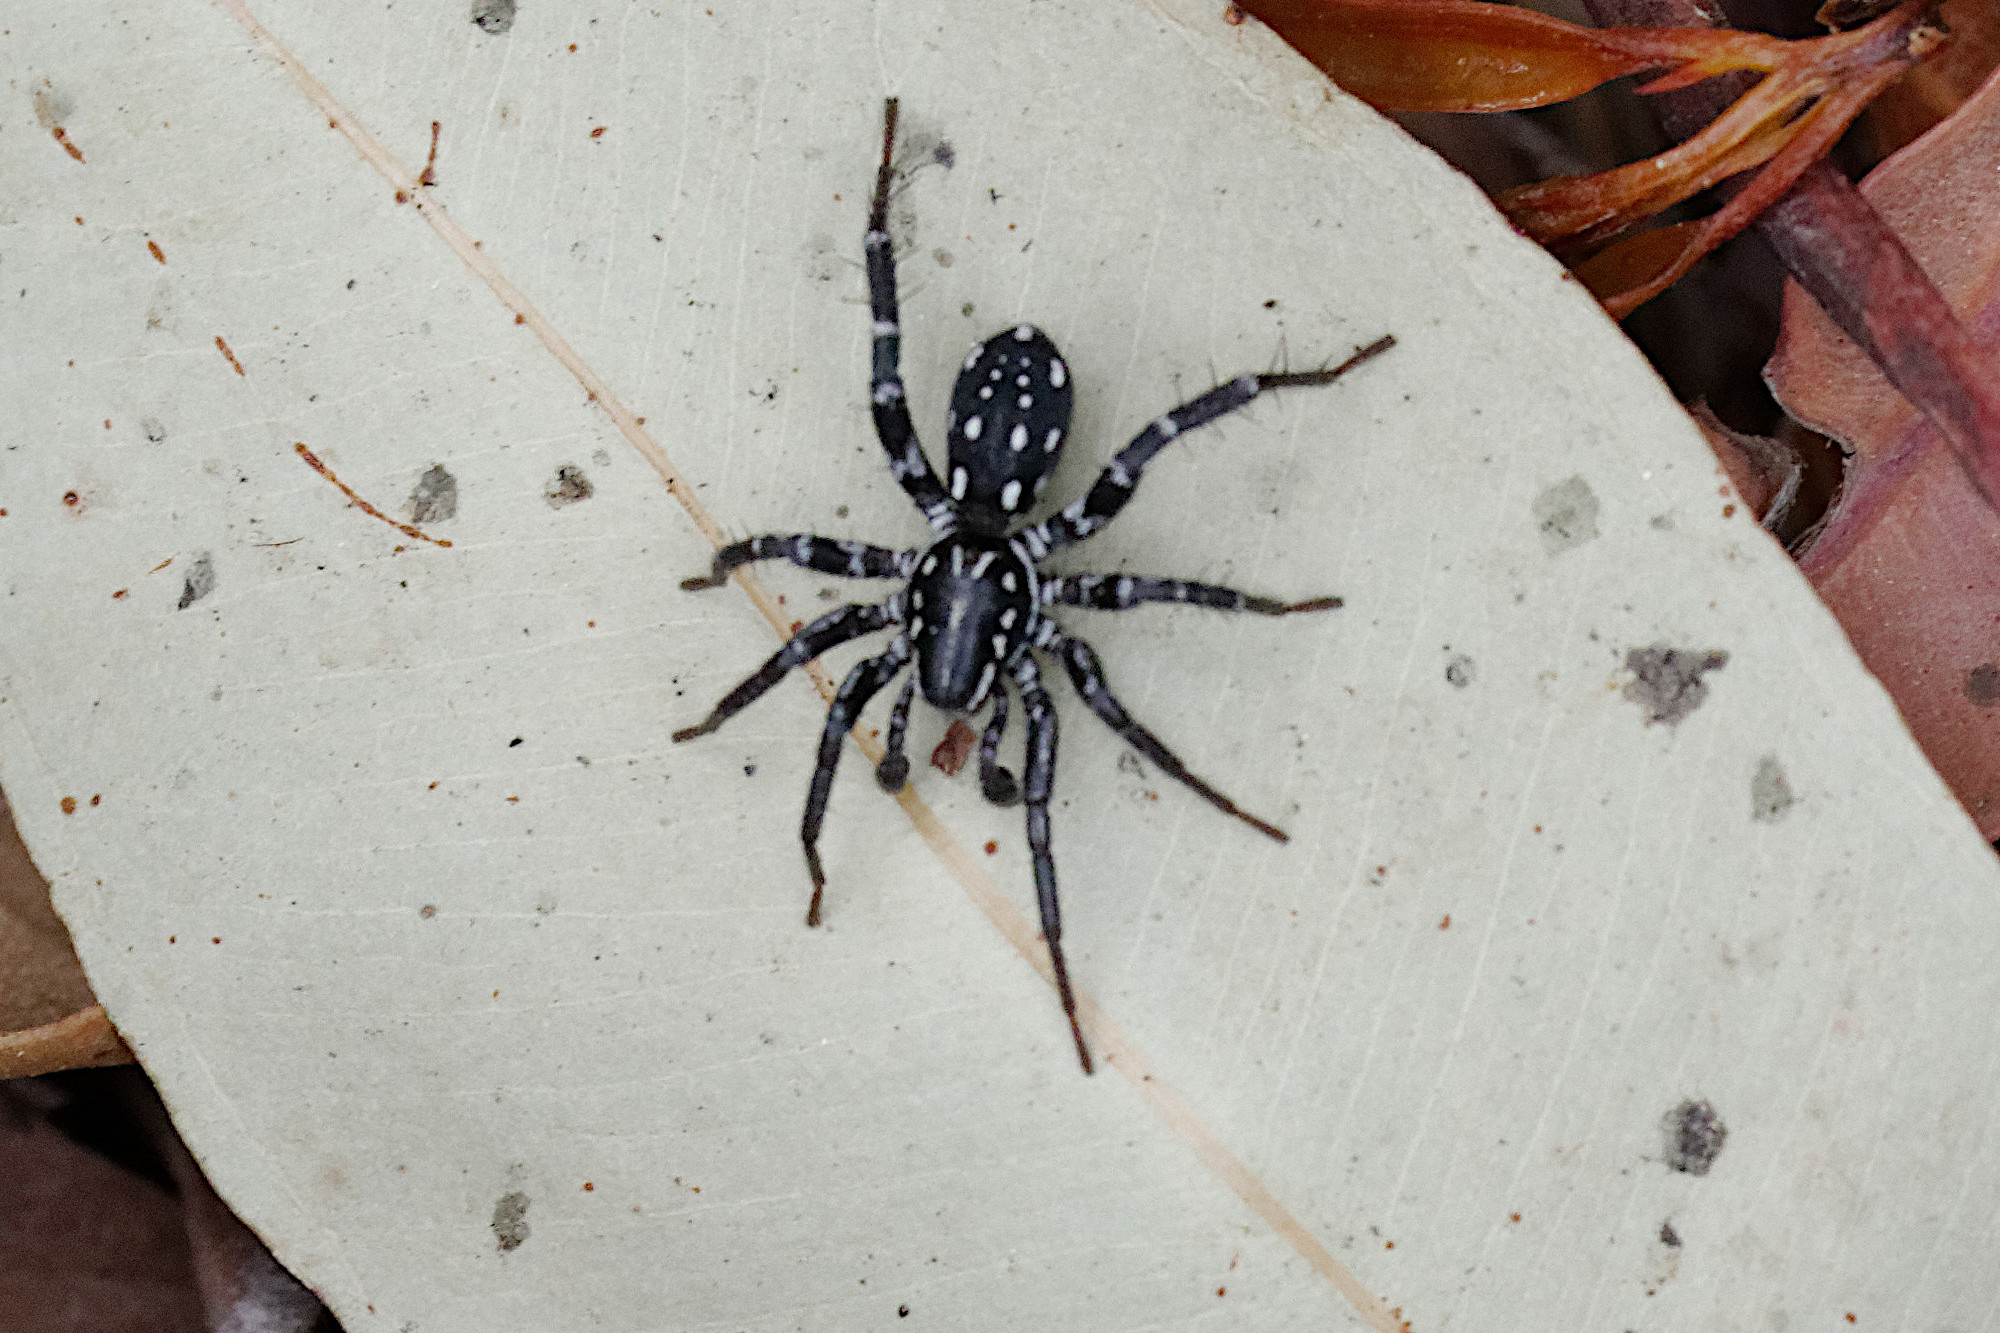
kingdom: Animalia
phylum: Arthropoda
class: Arachnida
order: Araneae
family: Corinnidae
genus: Nyssus
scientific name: Nyssus albopunctatus
